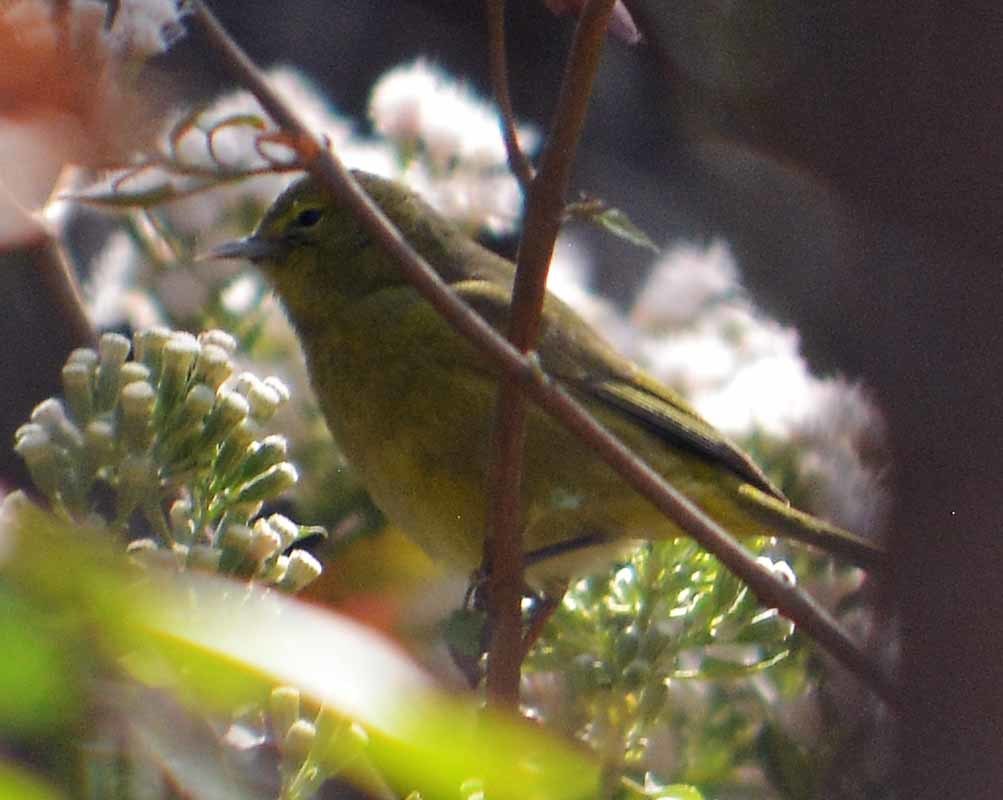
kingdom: Animalia
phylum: Chordata
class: Aves
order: Passeriformes
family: Parulidae
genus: Leiothlypis
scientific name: Leiothlypis celata
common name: Orange-crowned warbler
